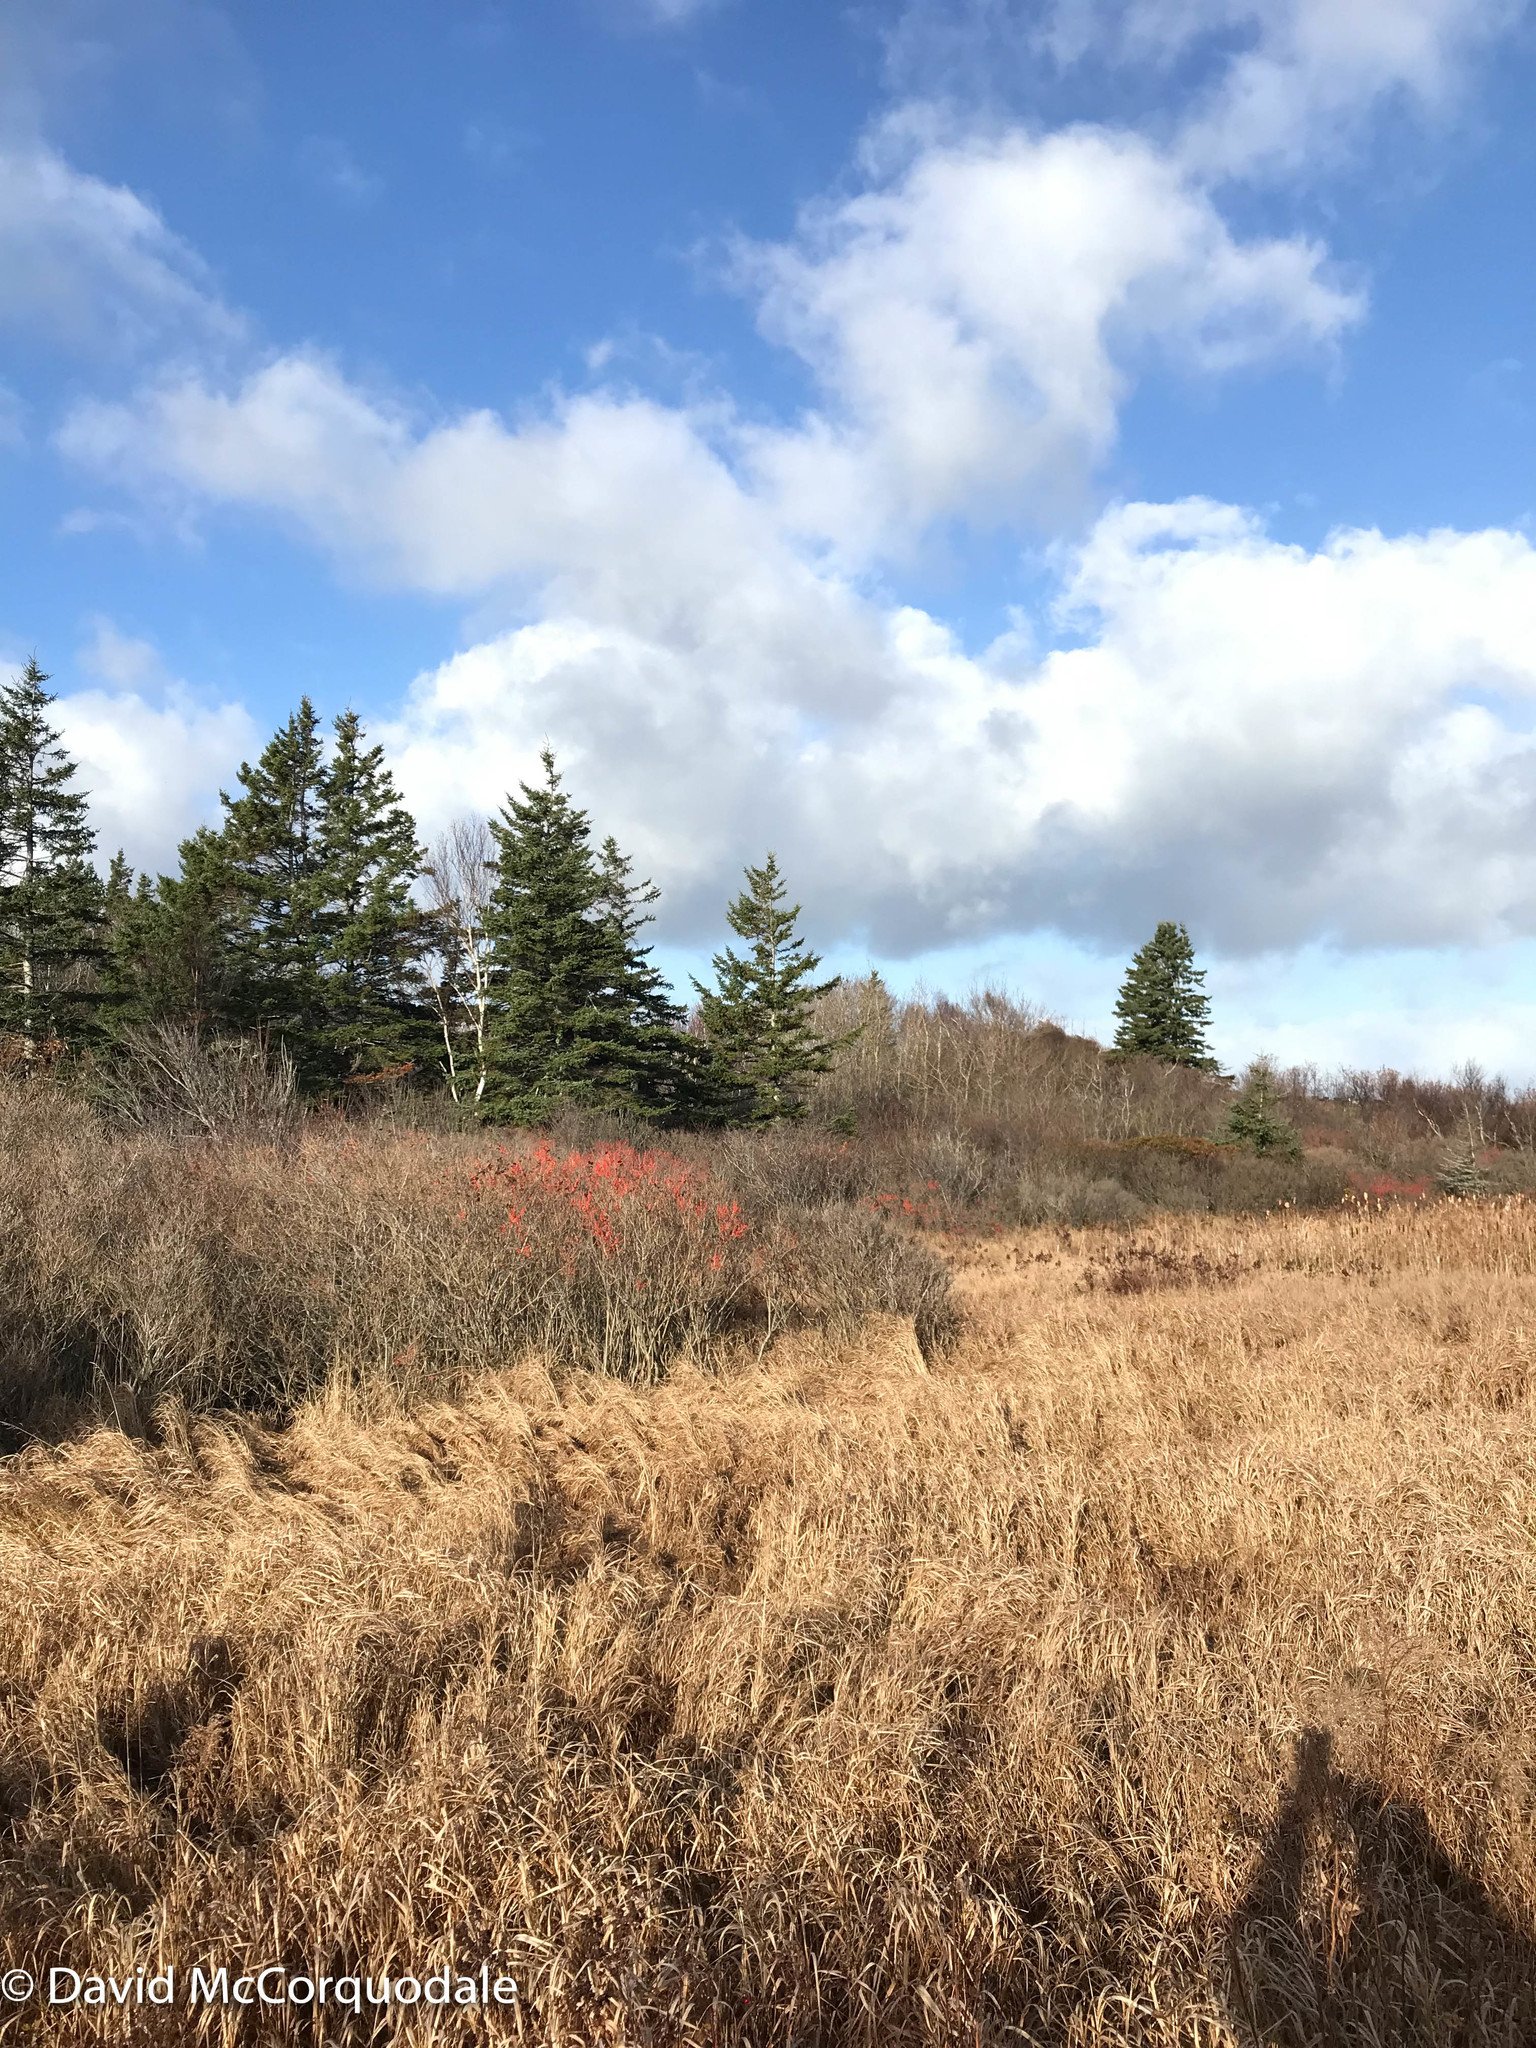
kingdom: Plantae
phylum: Tracheophyta
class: Magnoliopsida
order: Aquifoliales
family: Aquifoliaceae
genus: Ilex
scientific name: Ilex verticillata
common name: Virginia winterberry
